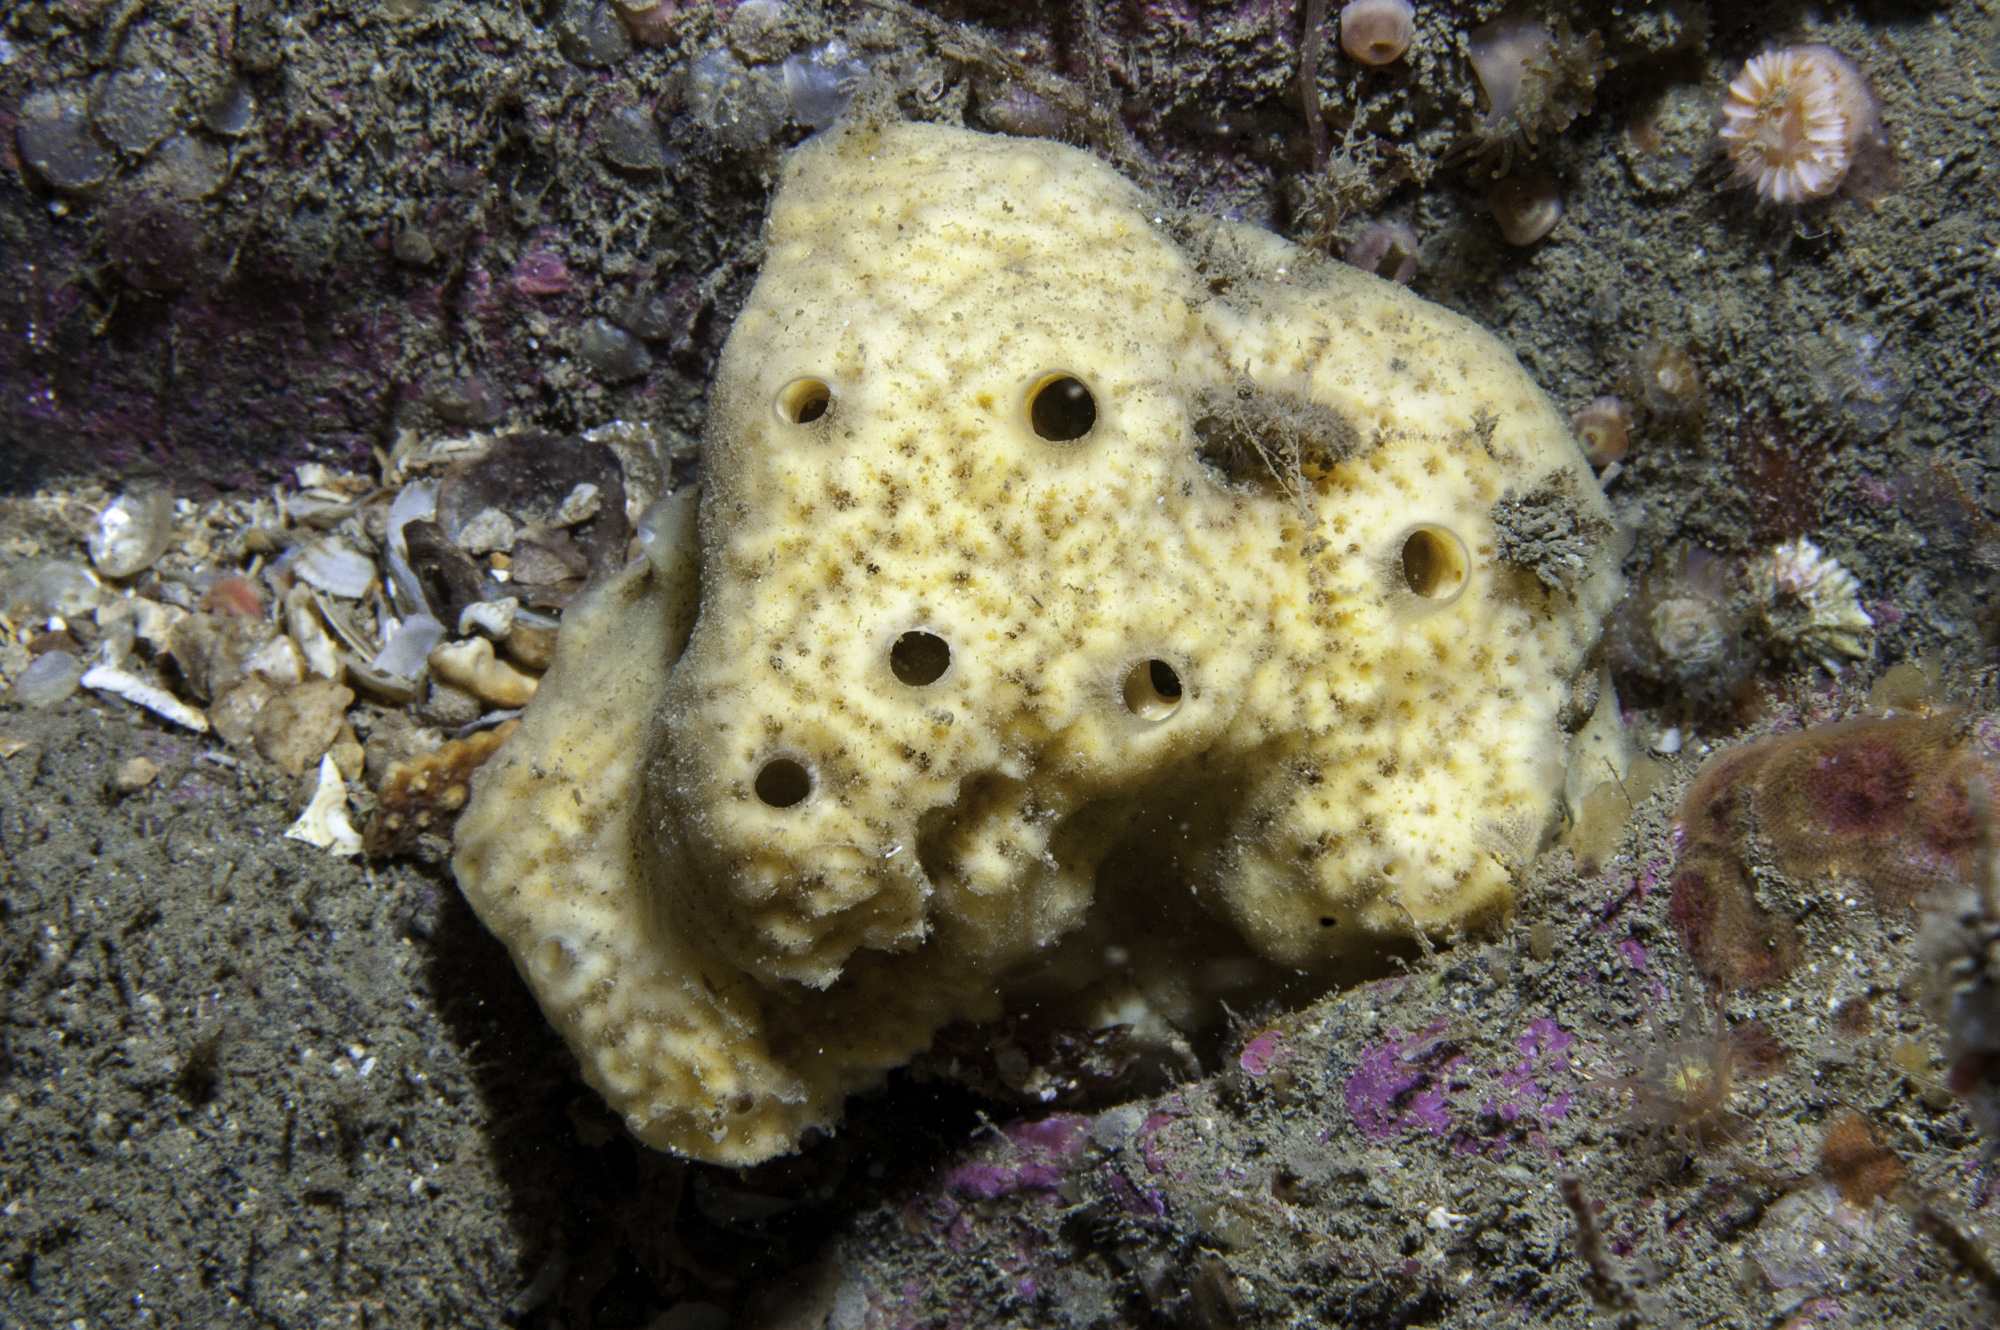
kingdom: Animalia
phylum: Porifera
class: Demospongiae
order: Poecilosclerida
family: Myxillidae
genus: Myxilla
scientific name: Myxilla incrustans
